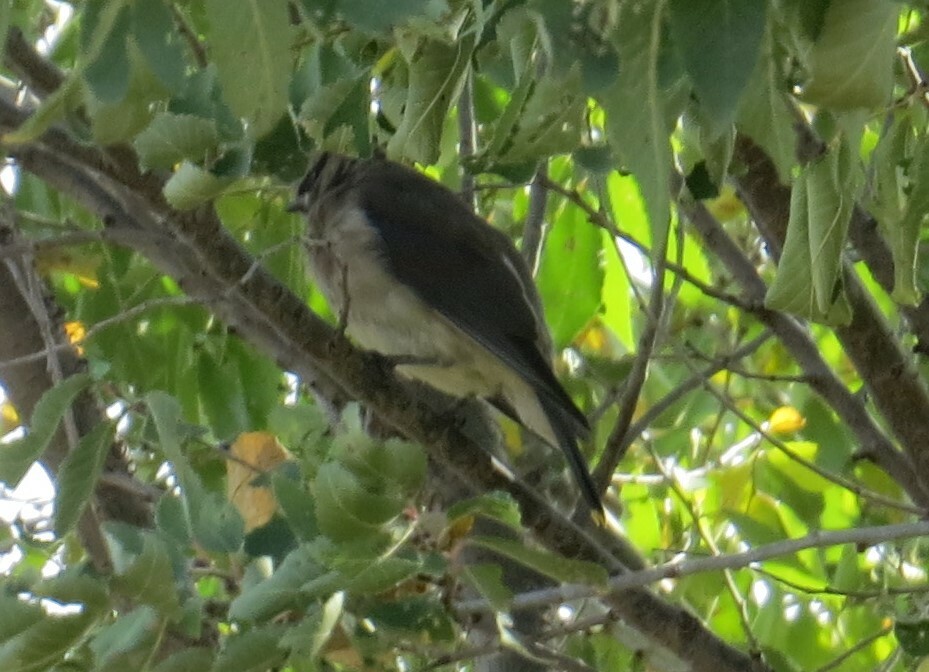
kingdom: Animalia
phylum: Chordata
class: Aves
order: Passeriformes
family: Bombycillidae
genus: Bombycilla
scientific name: Bombycilla cedrorum
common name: Cedar waxwing
